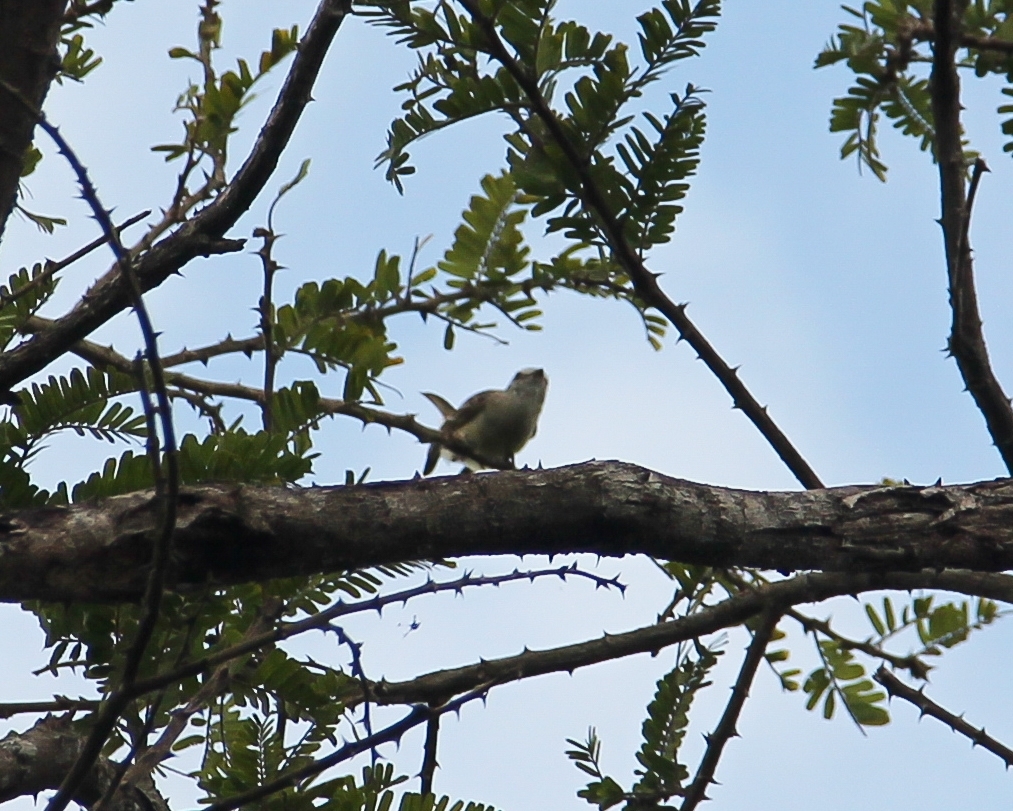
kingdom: Animalia
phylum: Chordata
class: Aves
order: Passeriformes
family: Tyrannidae
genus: Serpophaga
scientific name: Serpophaga subcristata
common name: White-crested tyrannulet
